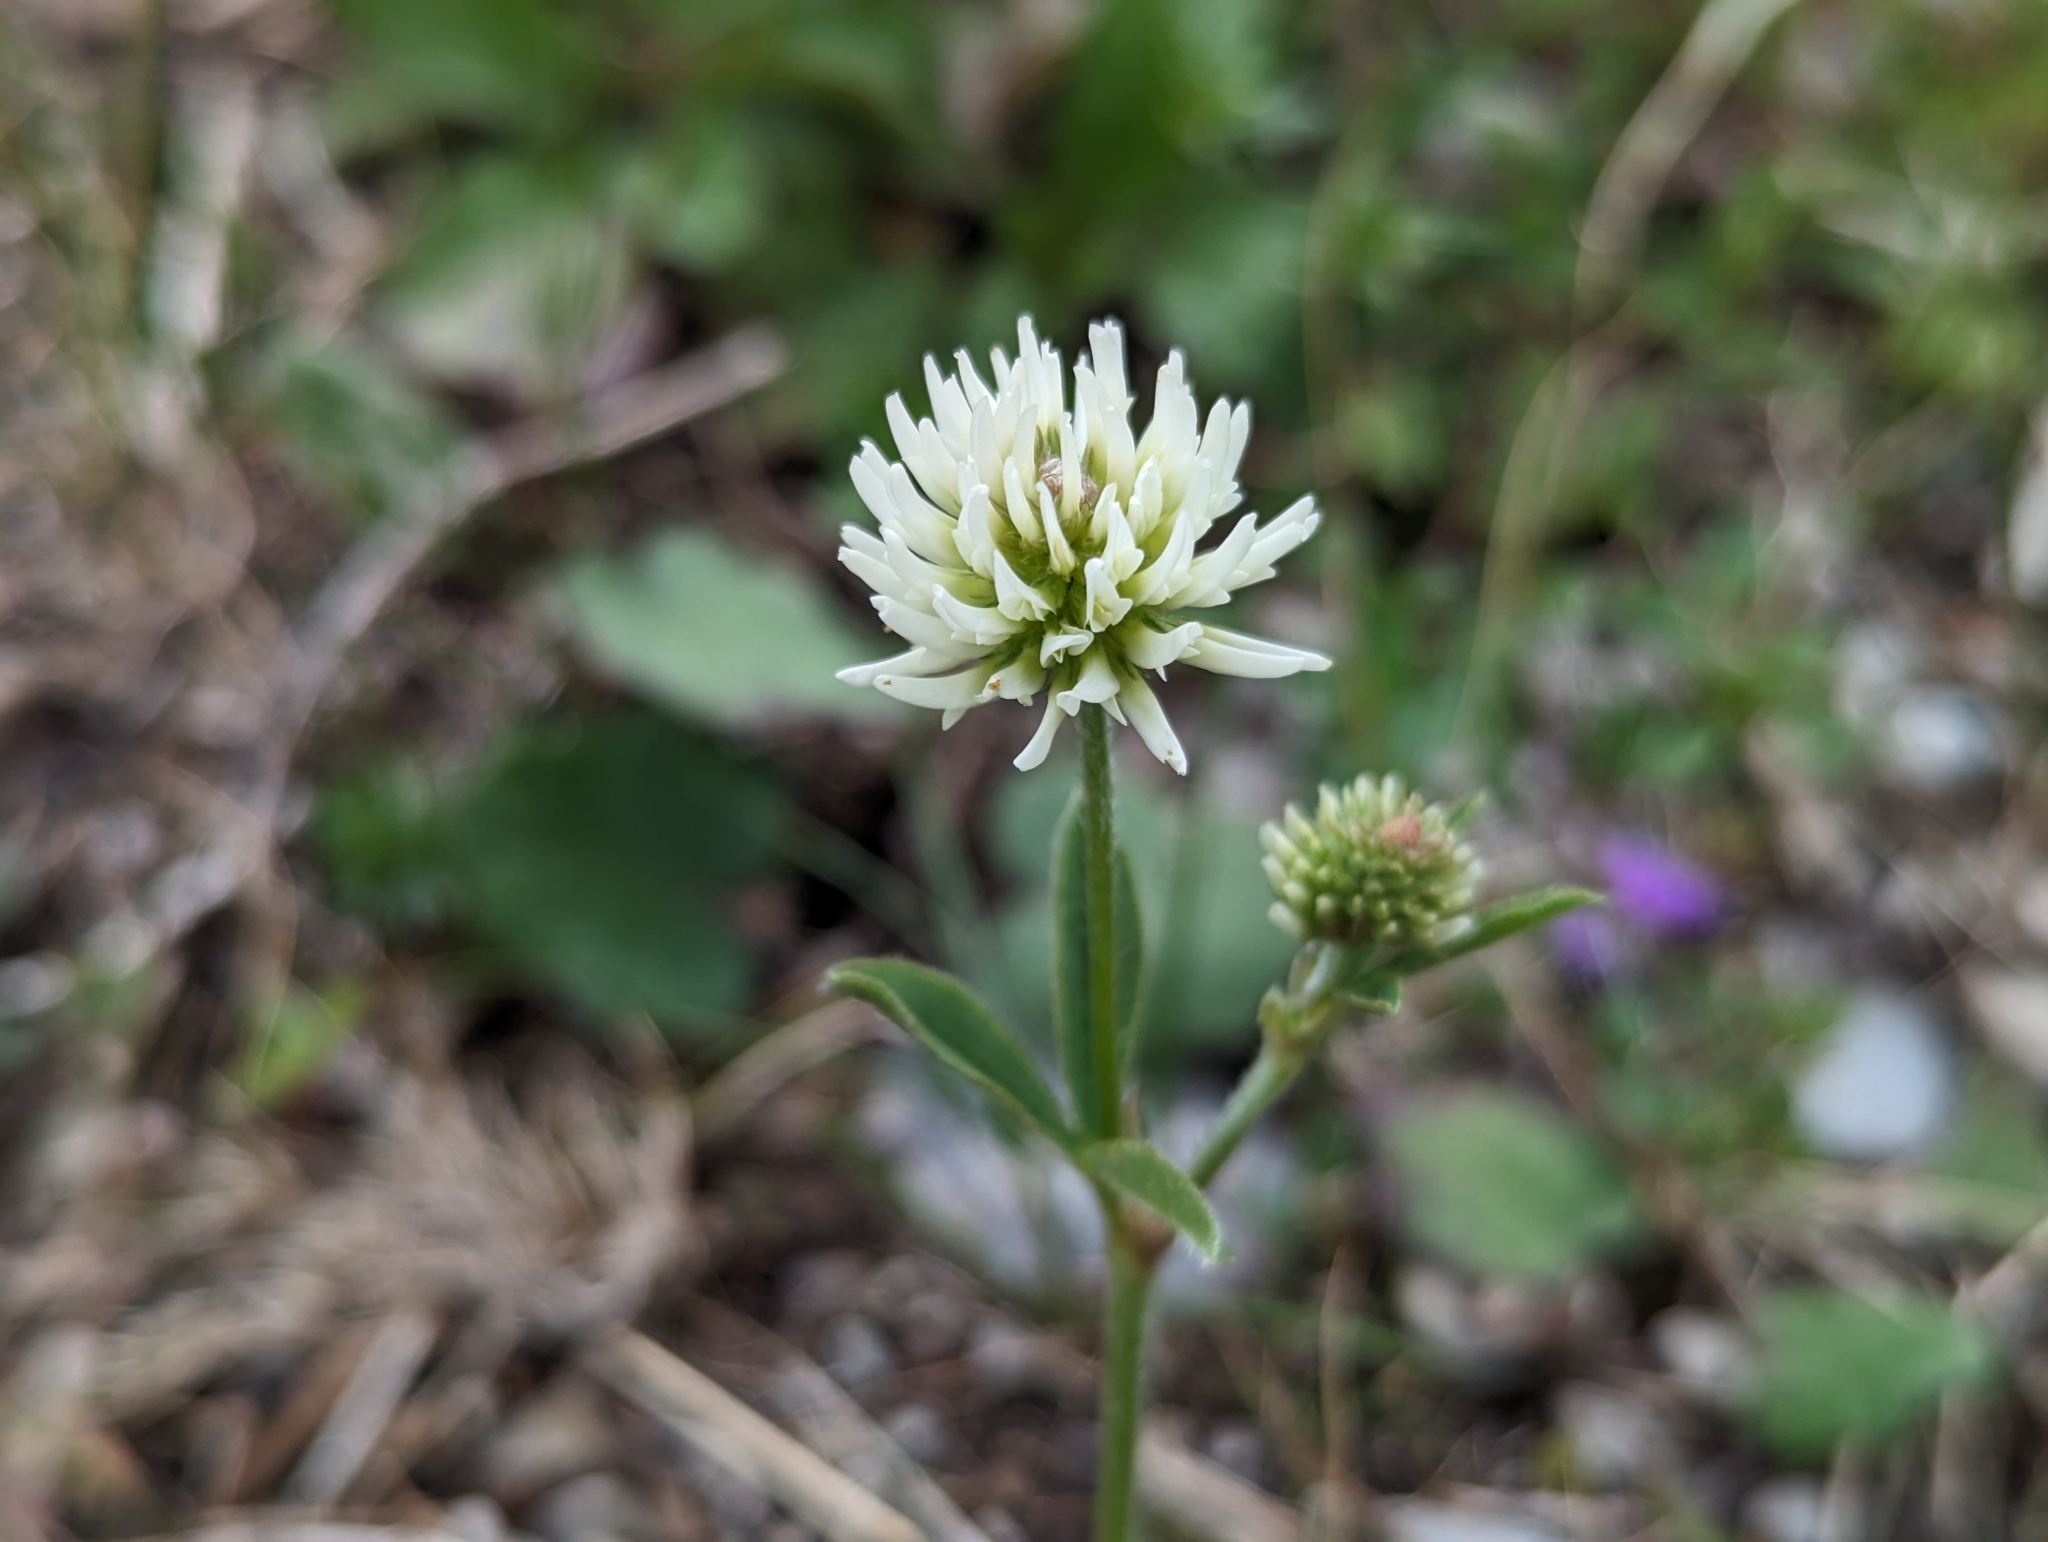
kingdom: Plantae
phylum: Tracheophyta
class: Magnoliopsida
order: Fabales
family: Fabaceae
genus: Trifolium
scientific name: Trifolium montanum
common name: Mountain clover
